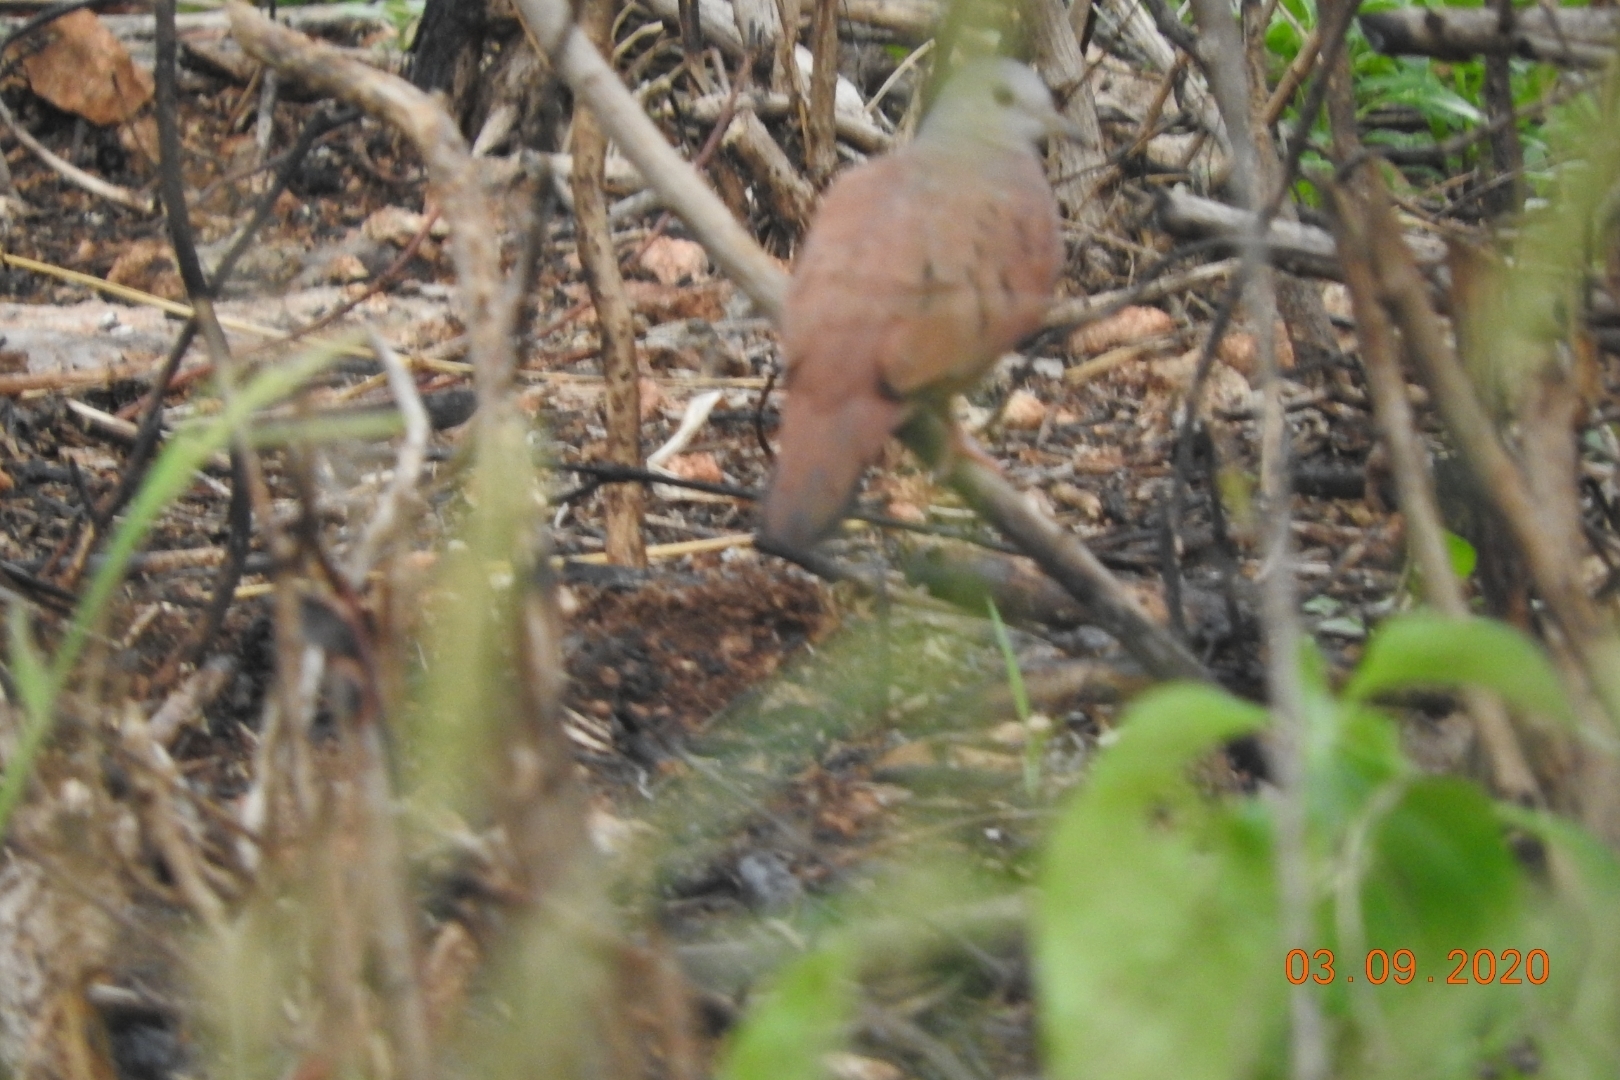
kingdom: Animalia
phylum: Chordata
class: Aves
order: Columbiformes
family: Columbidae
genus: Columbina
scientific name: Columbina talpacoti
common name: Ruddy ground dove
